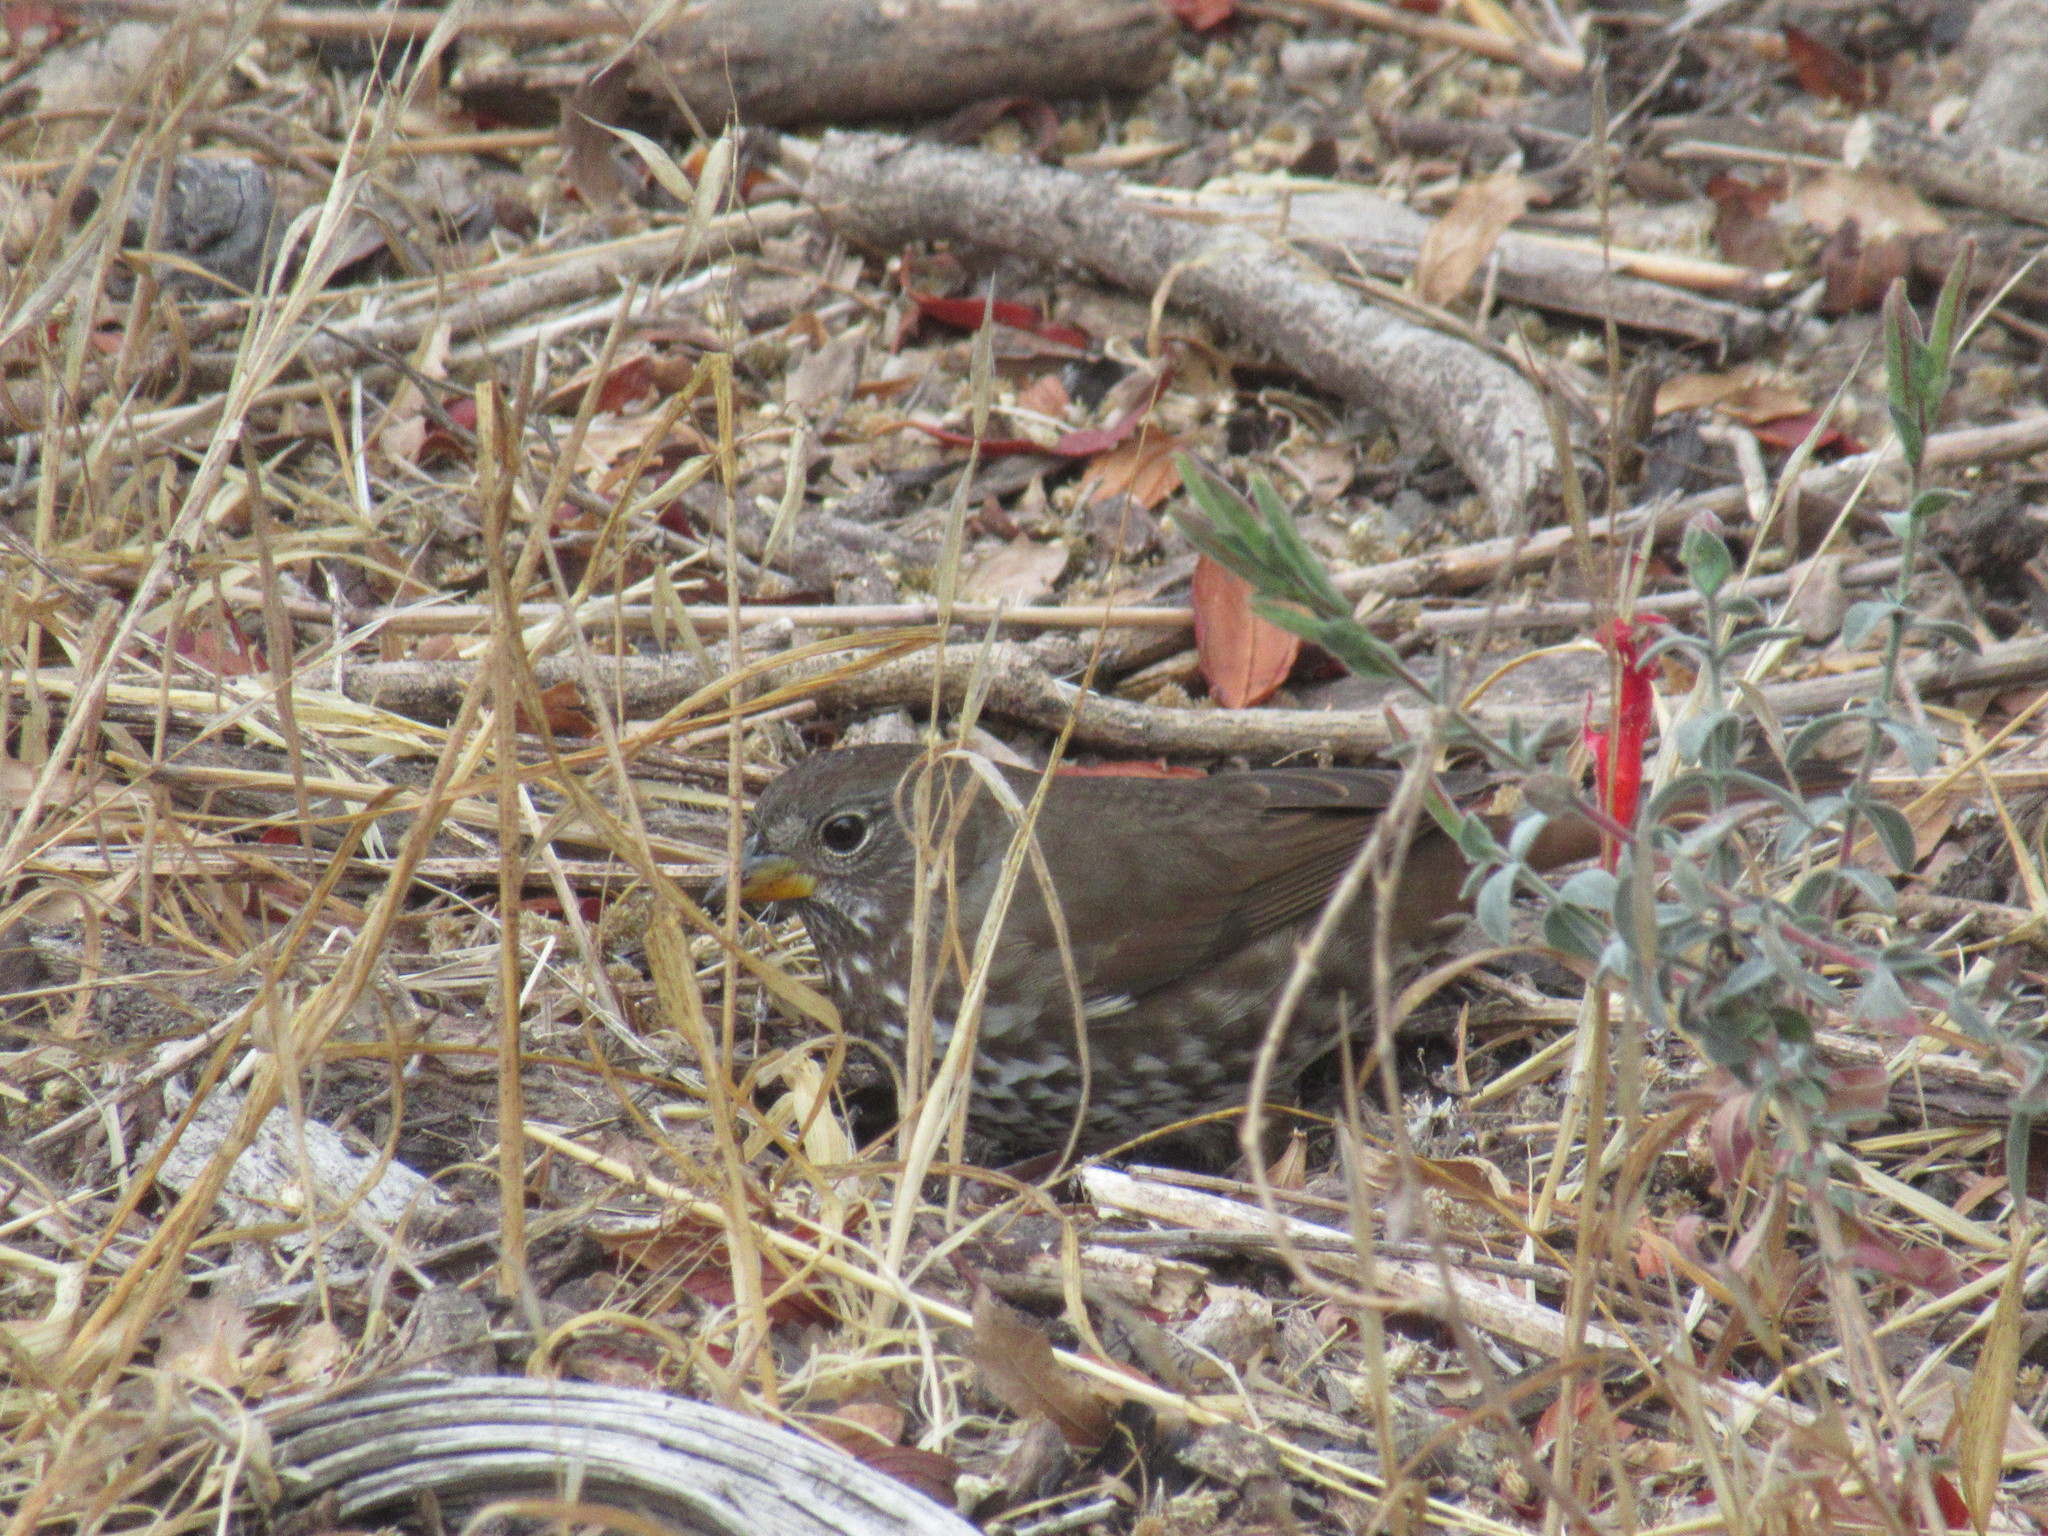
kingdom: Animalia
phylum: Chordata
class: Aves
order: Passeriformes
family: Passerellidae
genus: Passerella
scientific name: Passerella iliaca
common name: Fox sparrow
